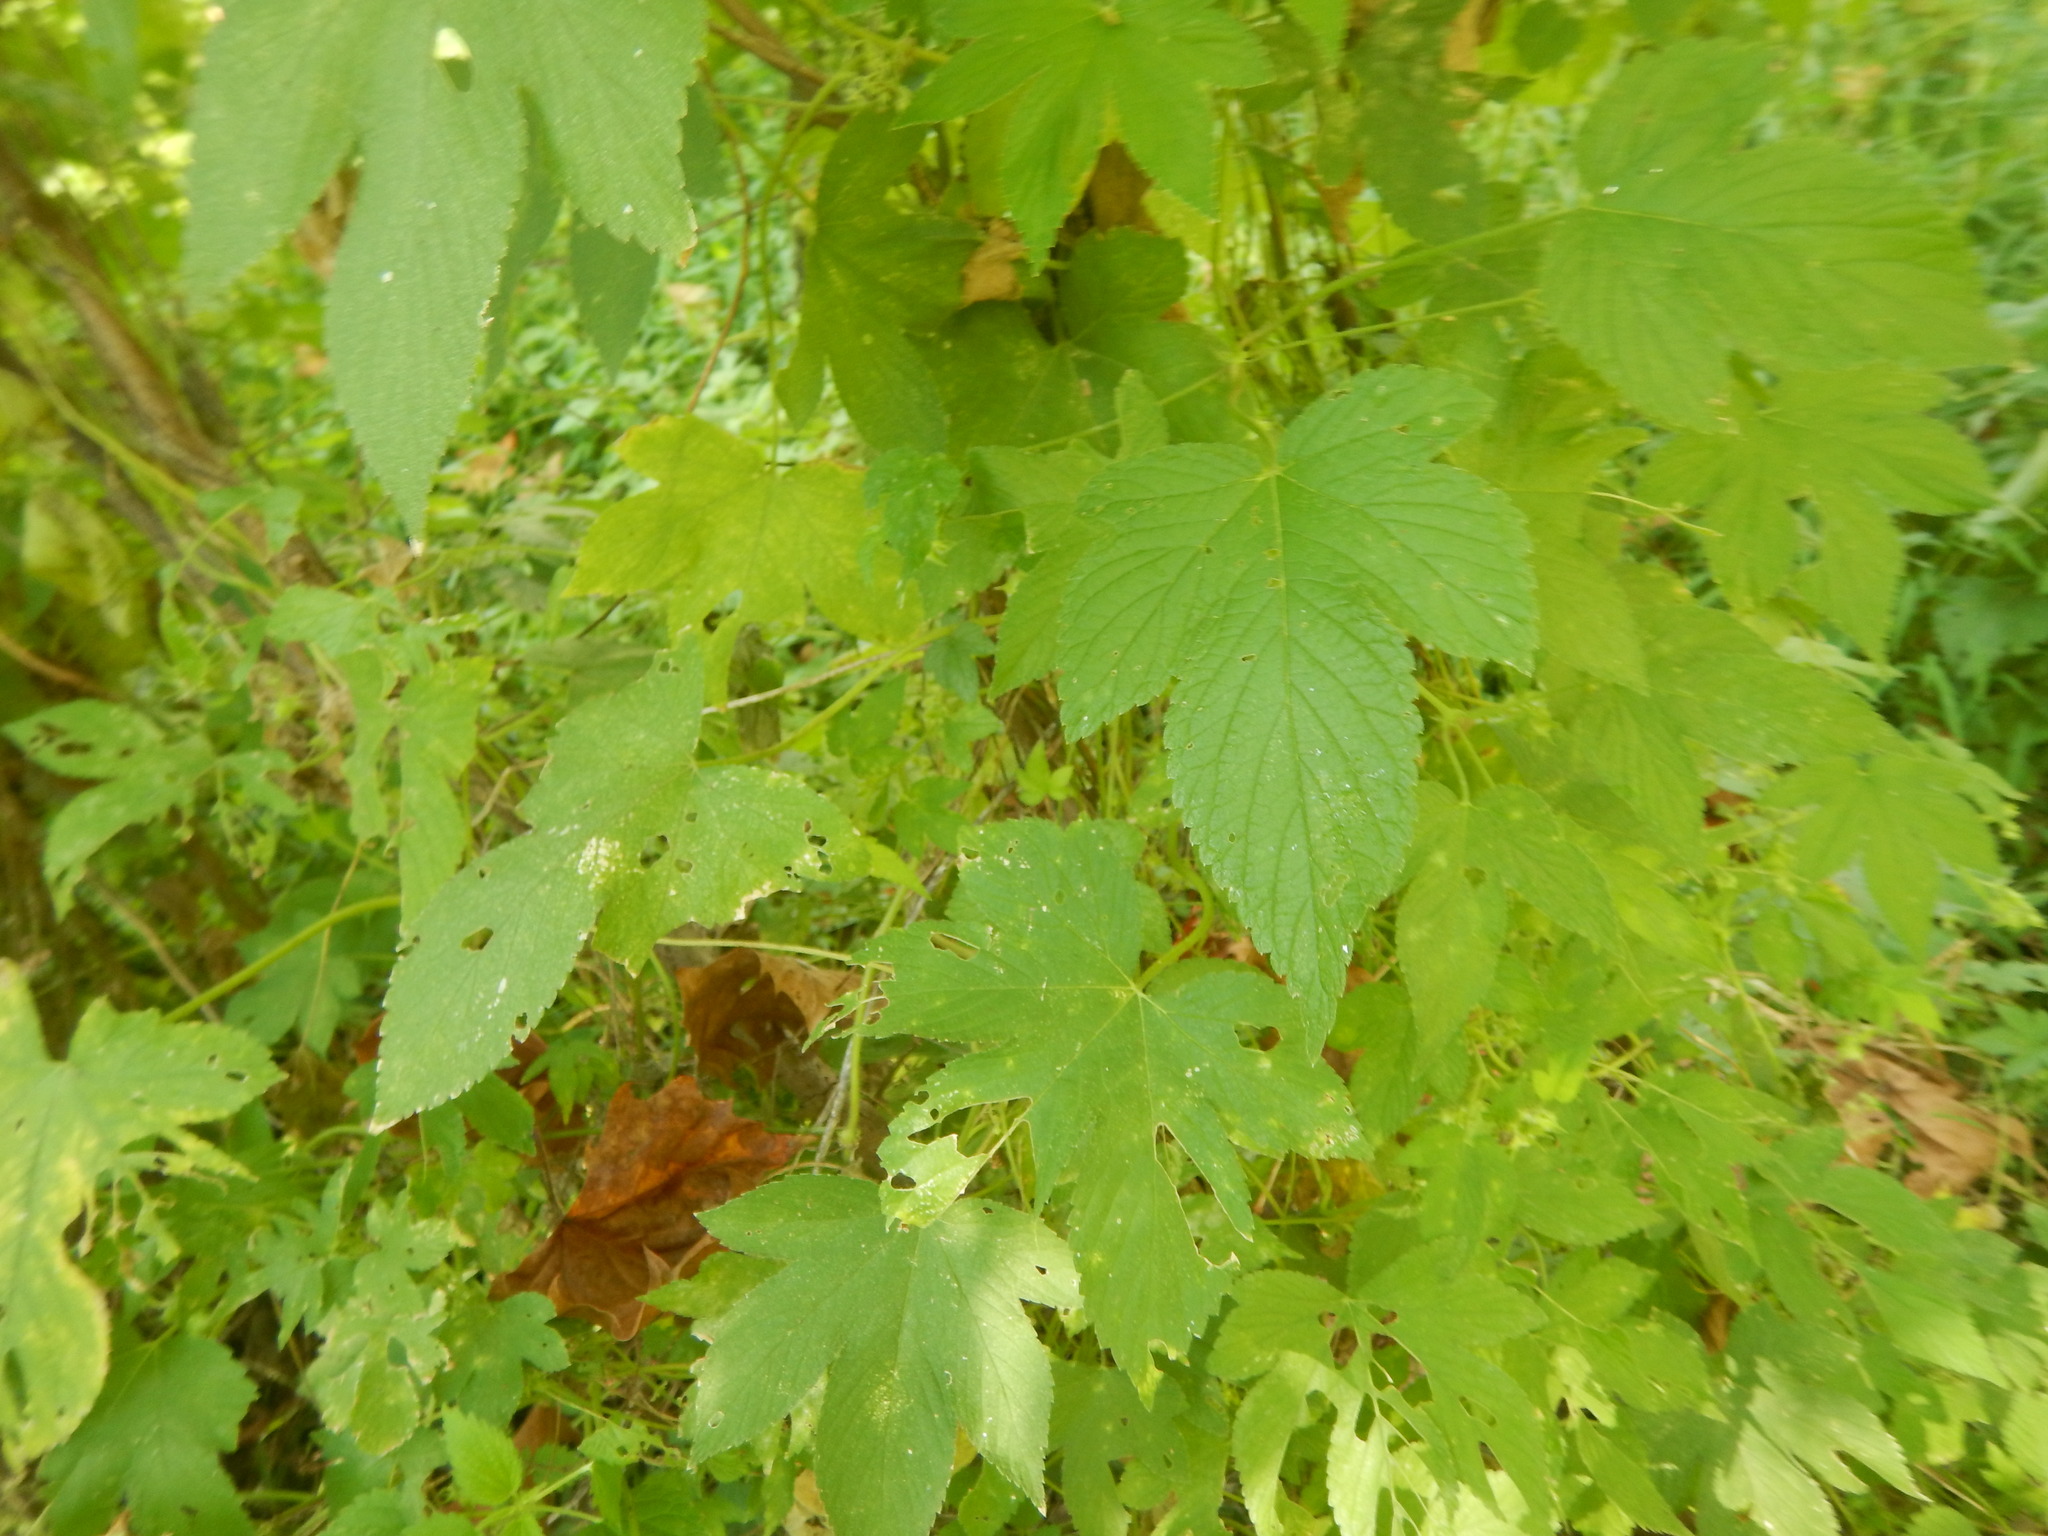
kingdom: Plantae
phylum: Tracheophyta
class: Magnoliopsida
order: Rosales
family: Cannabaceae
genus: Humulus
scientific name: Humulus scandens
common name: Japanese hop
